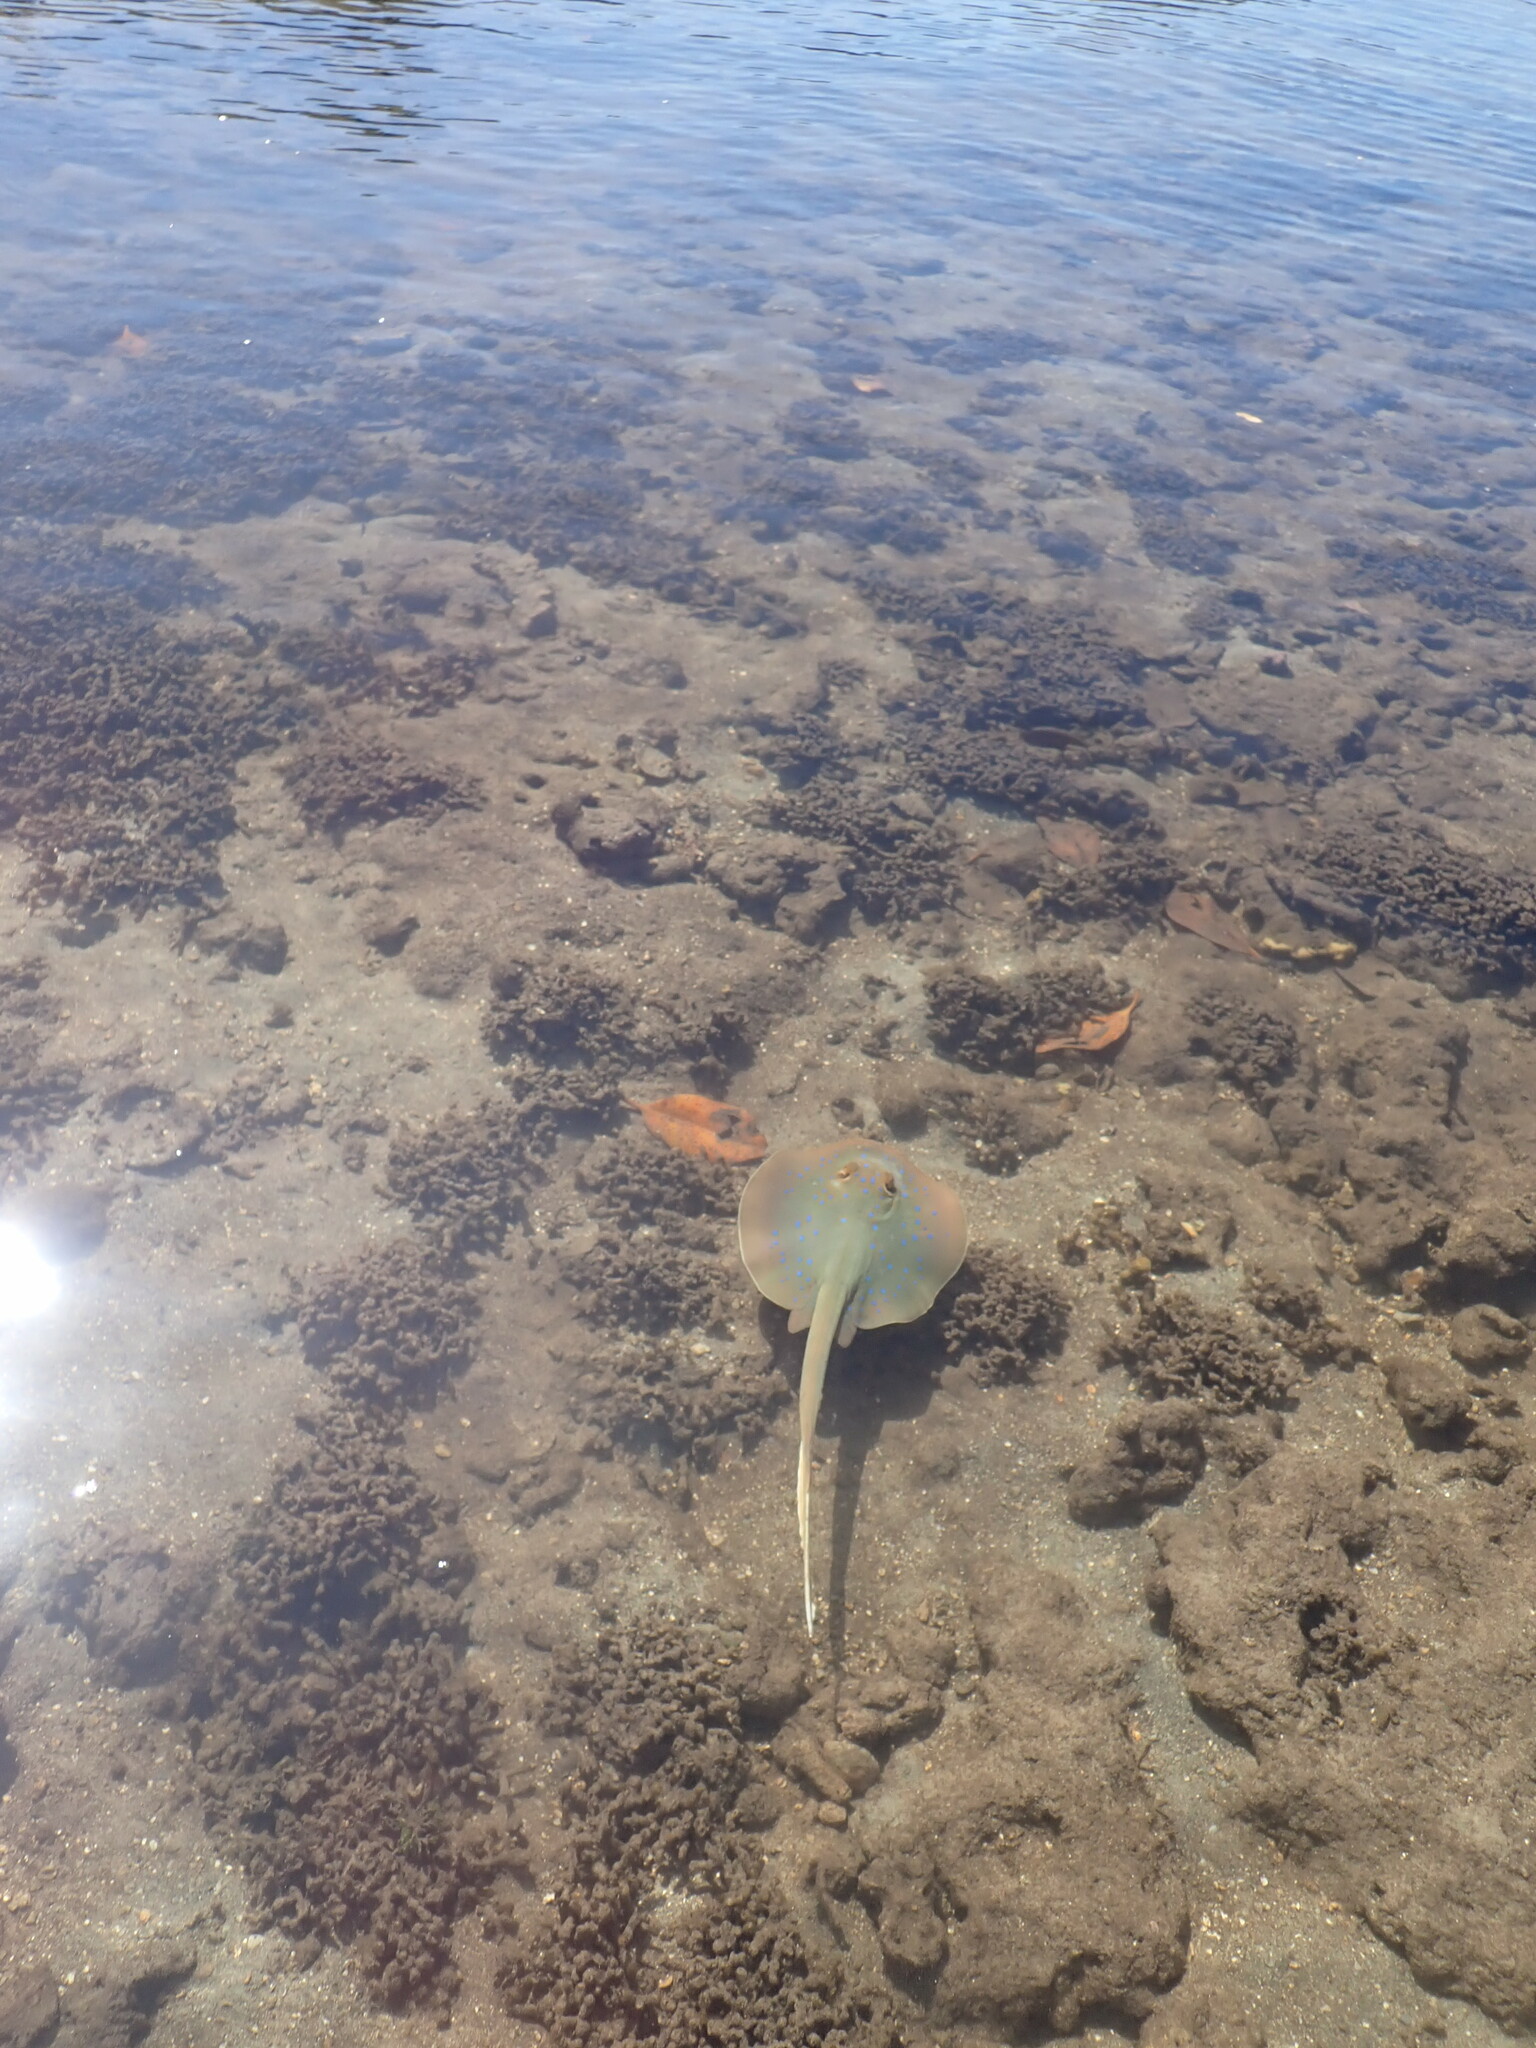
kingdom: Animalia
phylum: Chordata
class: Elasmobranchii
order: Myliobatiformes
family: Dasyatidae
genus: Taeniura
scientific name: Taeniura lessoni
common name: Oceania fantail ray
